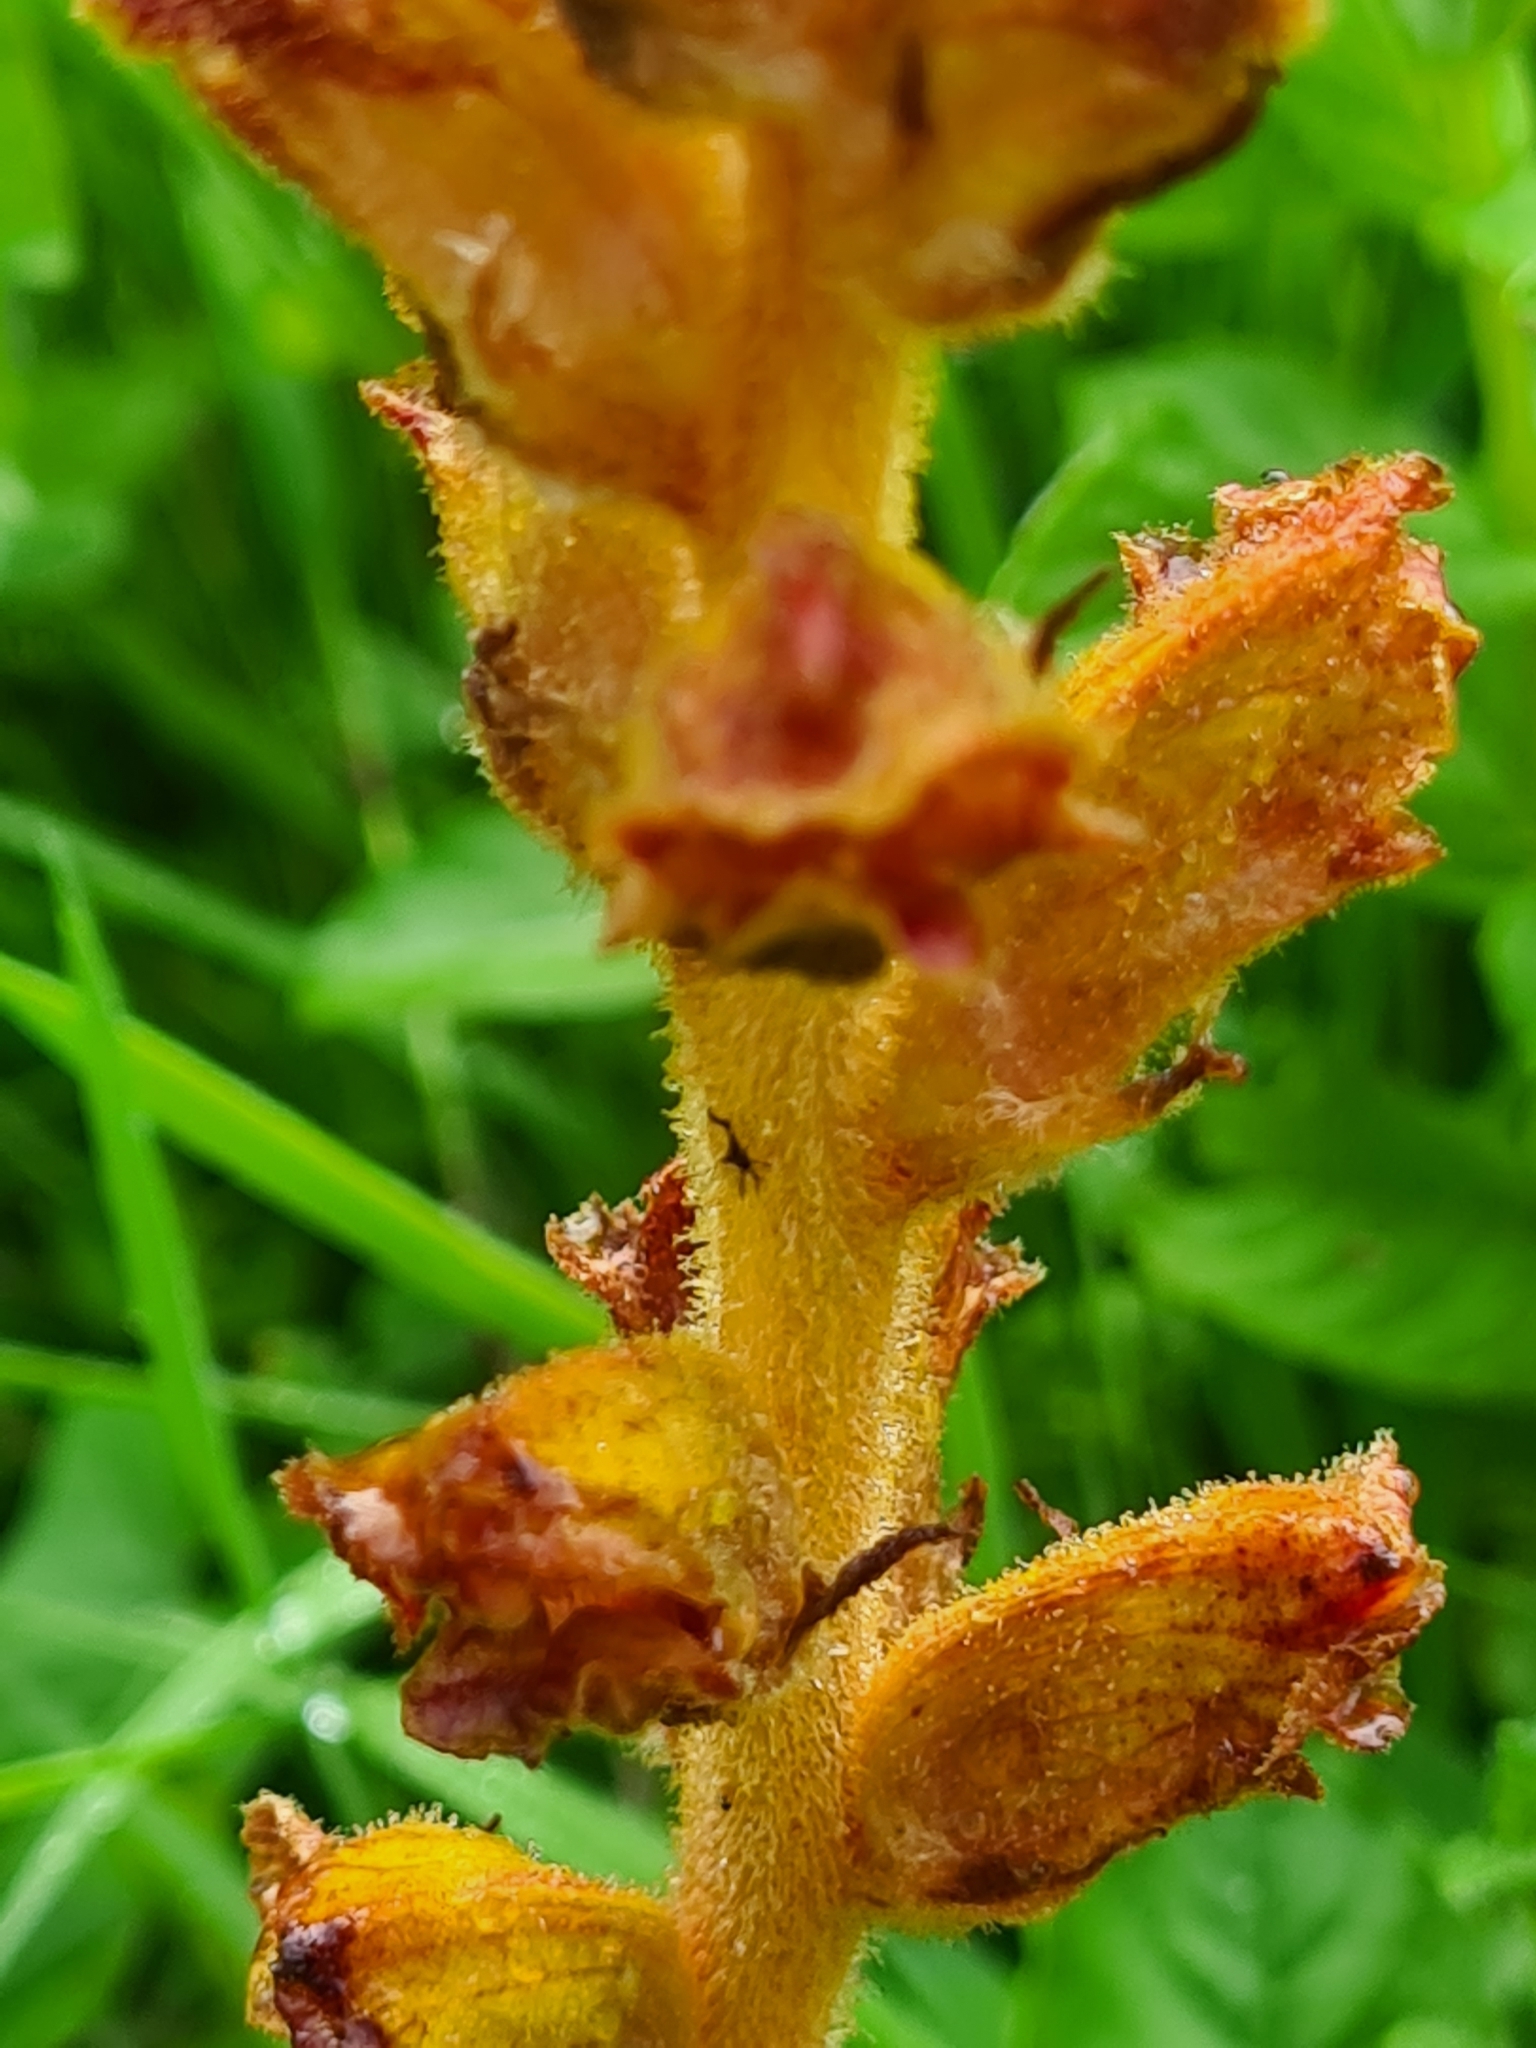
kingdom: Plantae
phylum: Tracheophyta
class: Magnoliopsida
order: Lamiales
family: Orobanchaceae
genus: Orobanche
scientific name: Orobanche gracilis
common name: Slender broomrape
